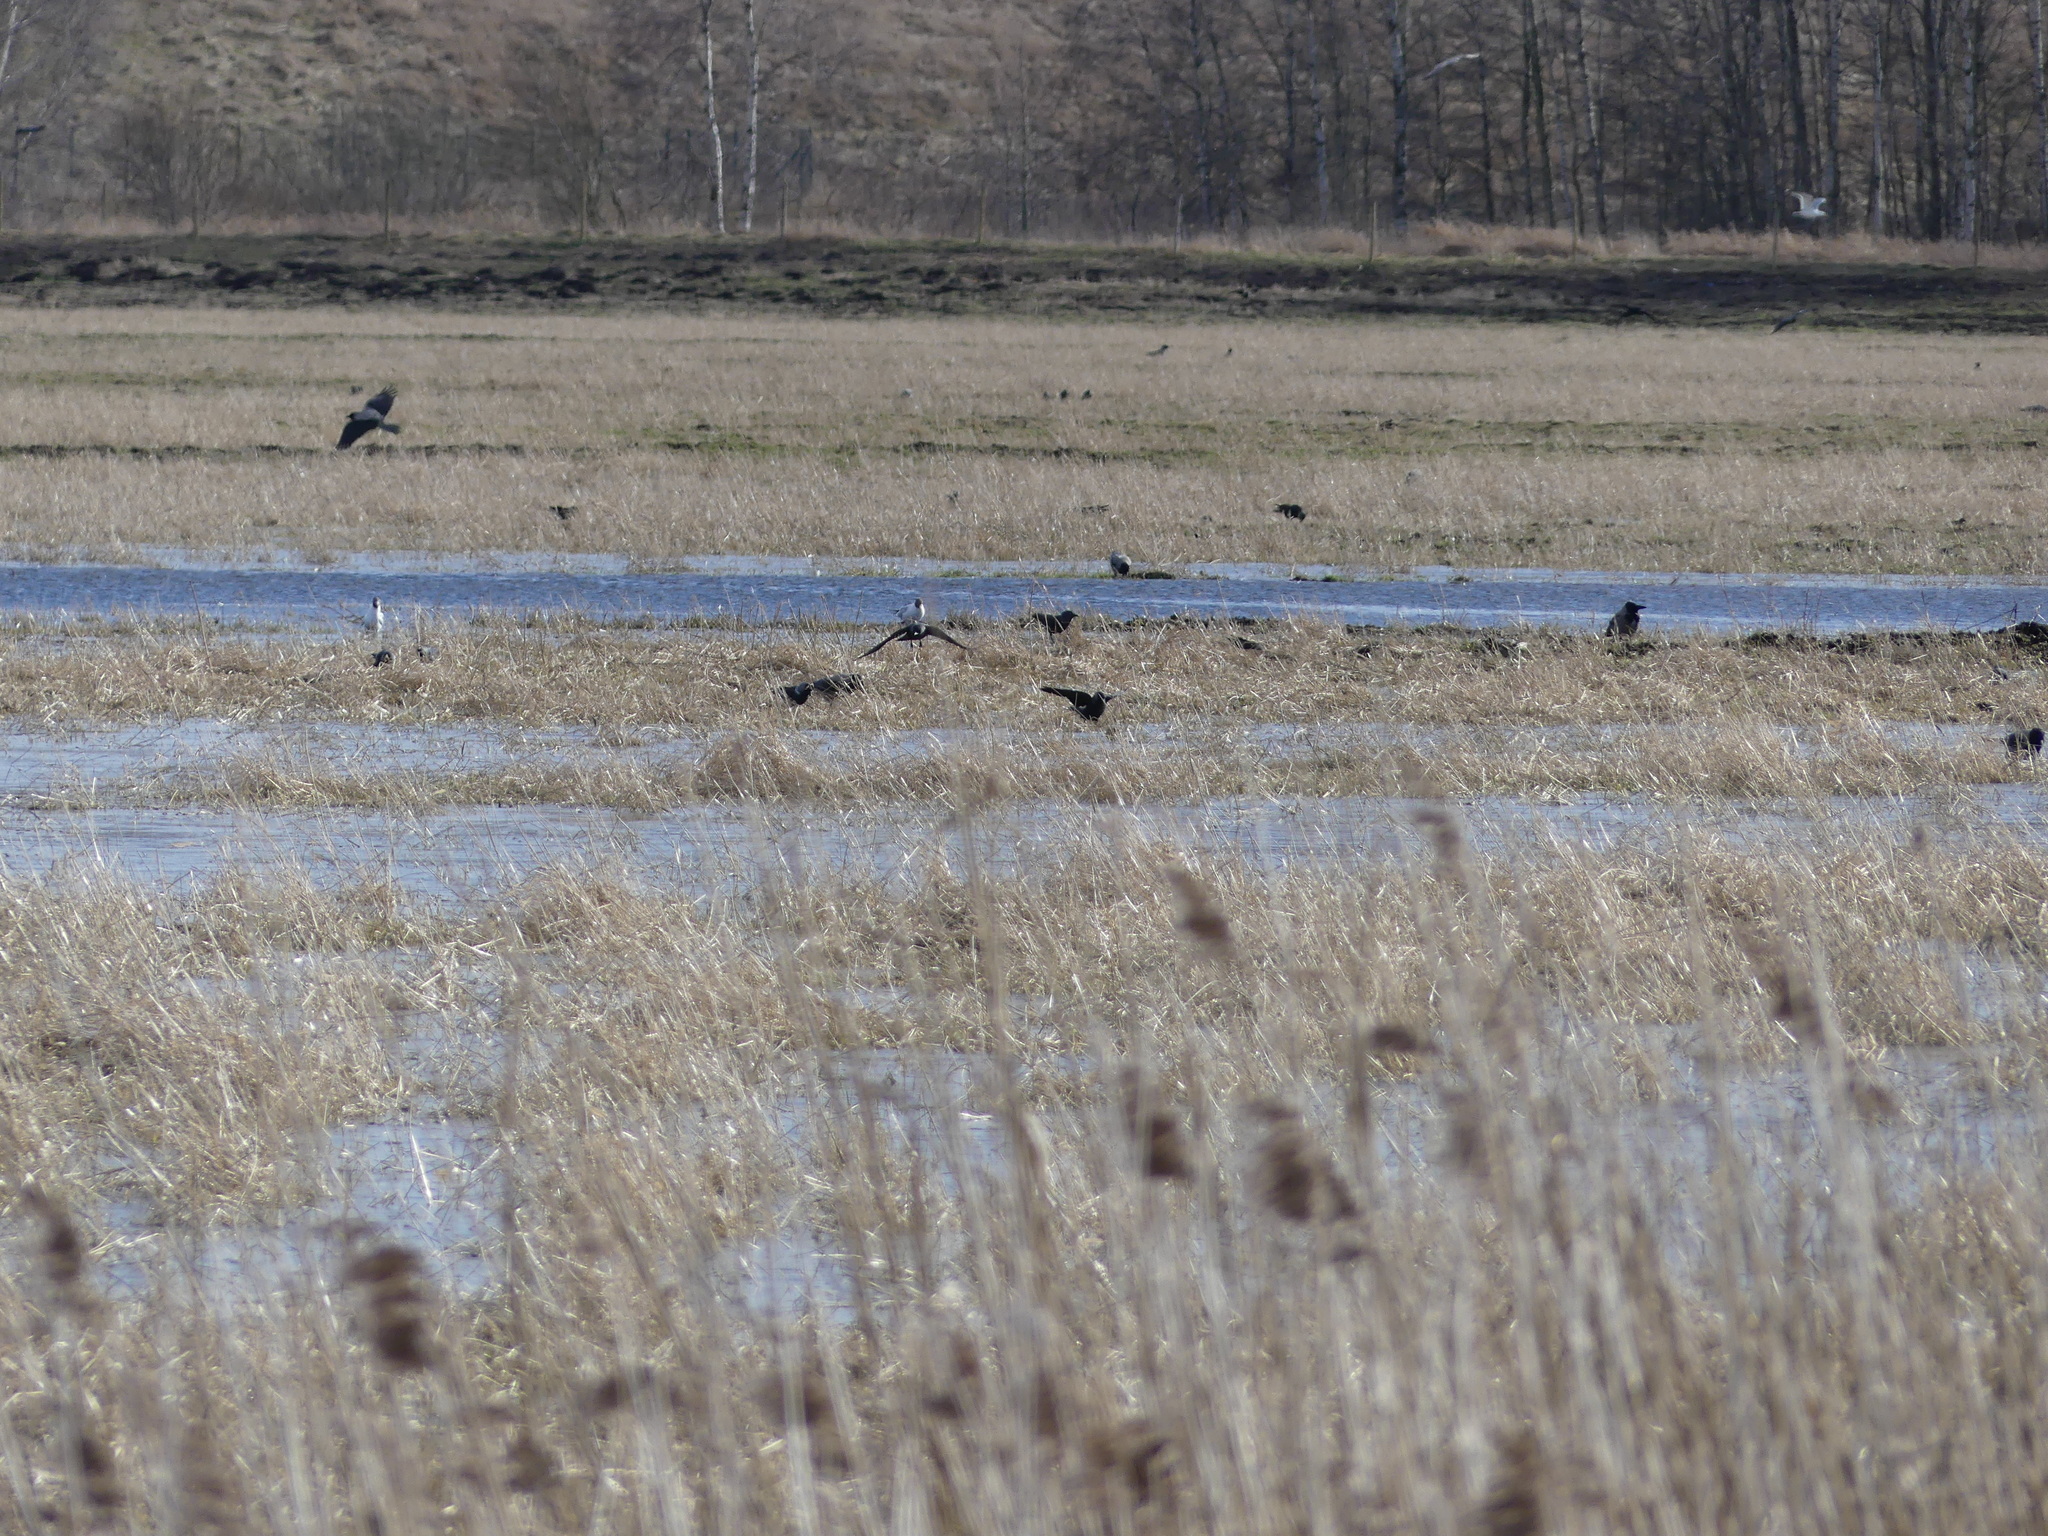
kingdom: Animalia
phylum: Chordata
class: Aves
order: Charadriiformes
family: Laridae
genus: Chroicocephalus
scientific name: Chroicocephalus ridibundus
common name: Black-headed gull
